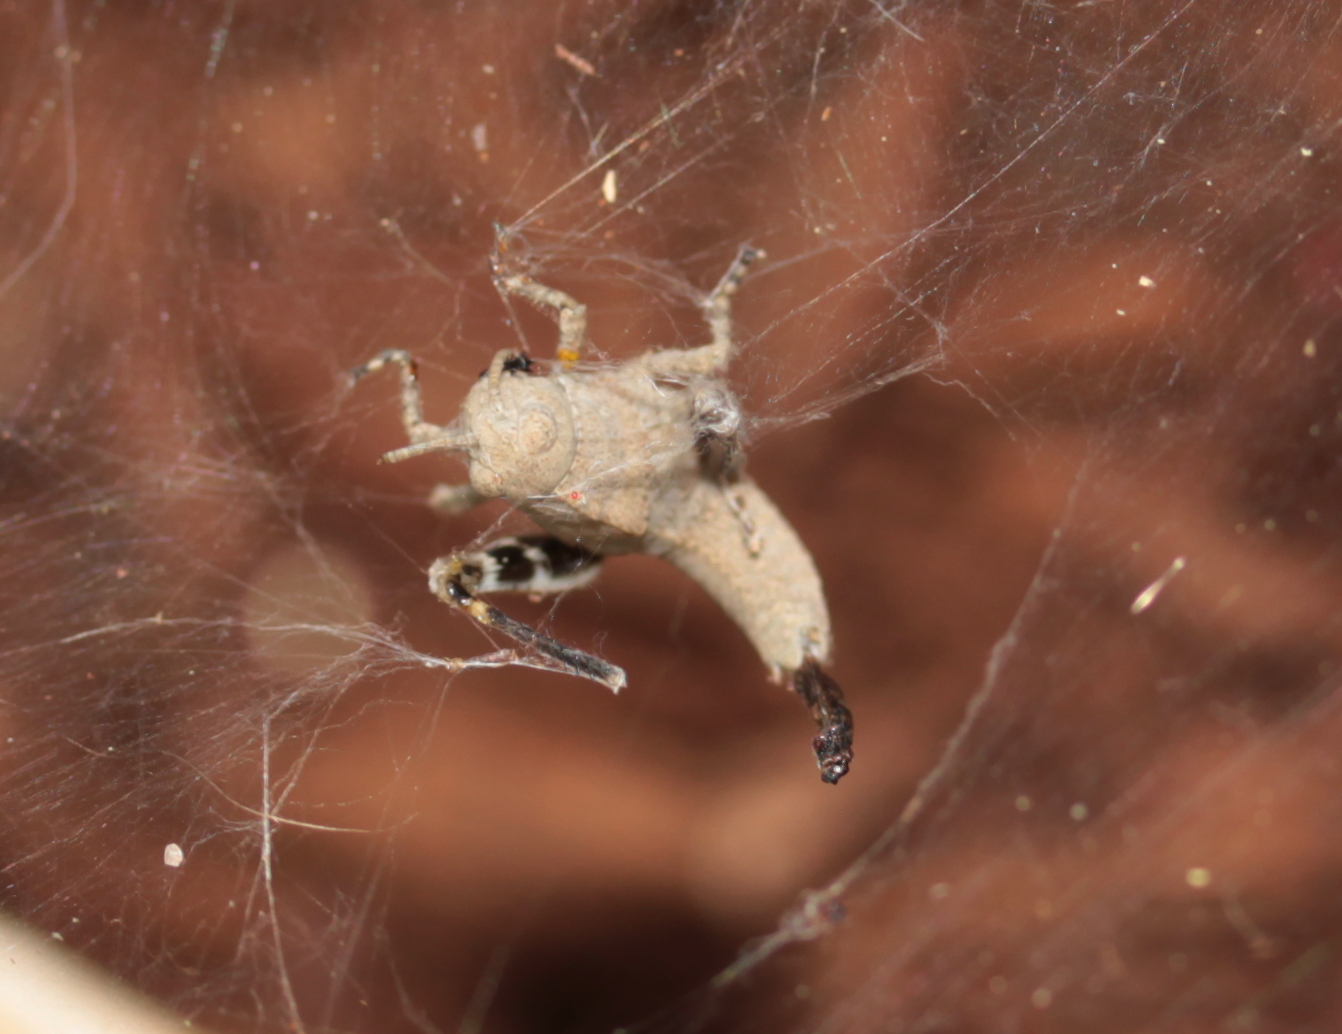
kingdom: Animalia
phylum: Arthropoda
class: Insecta
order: Orthoptera
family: Acrididae
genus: Dissosteira
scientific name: Dissosteira carolina
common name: Carolina grasshopper
